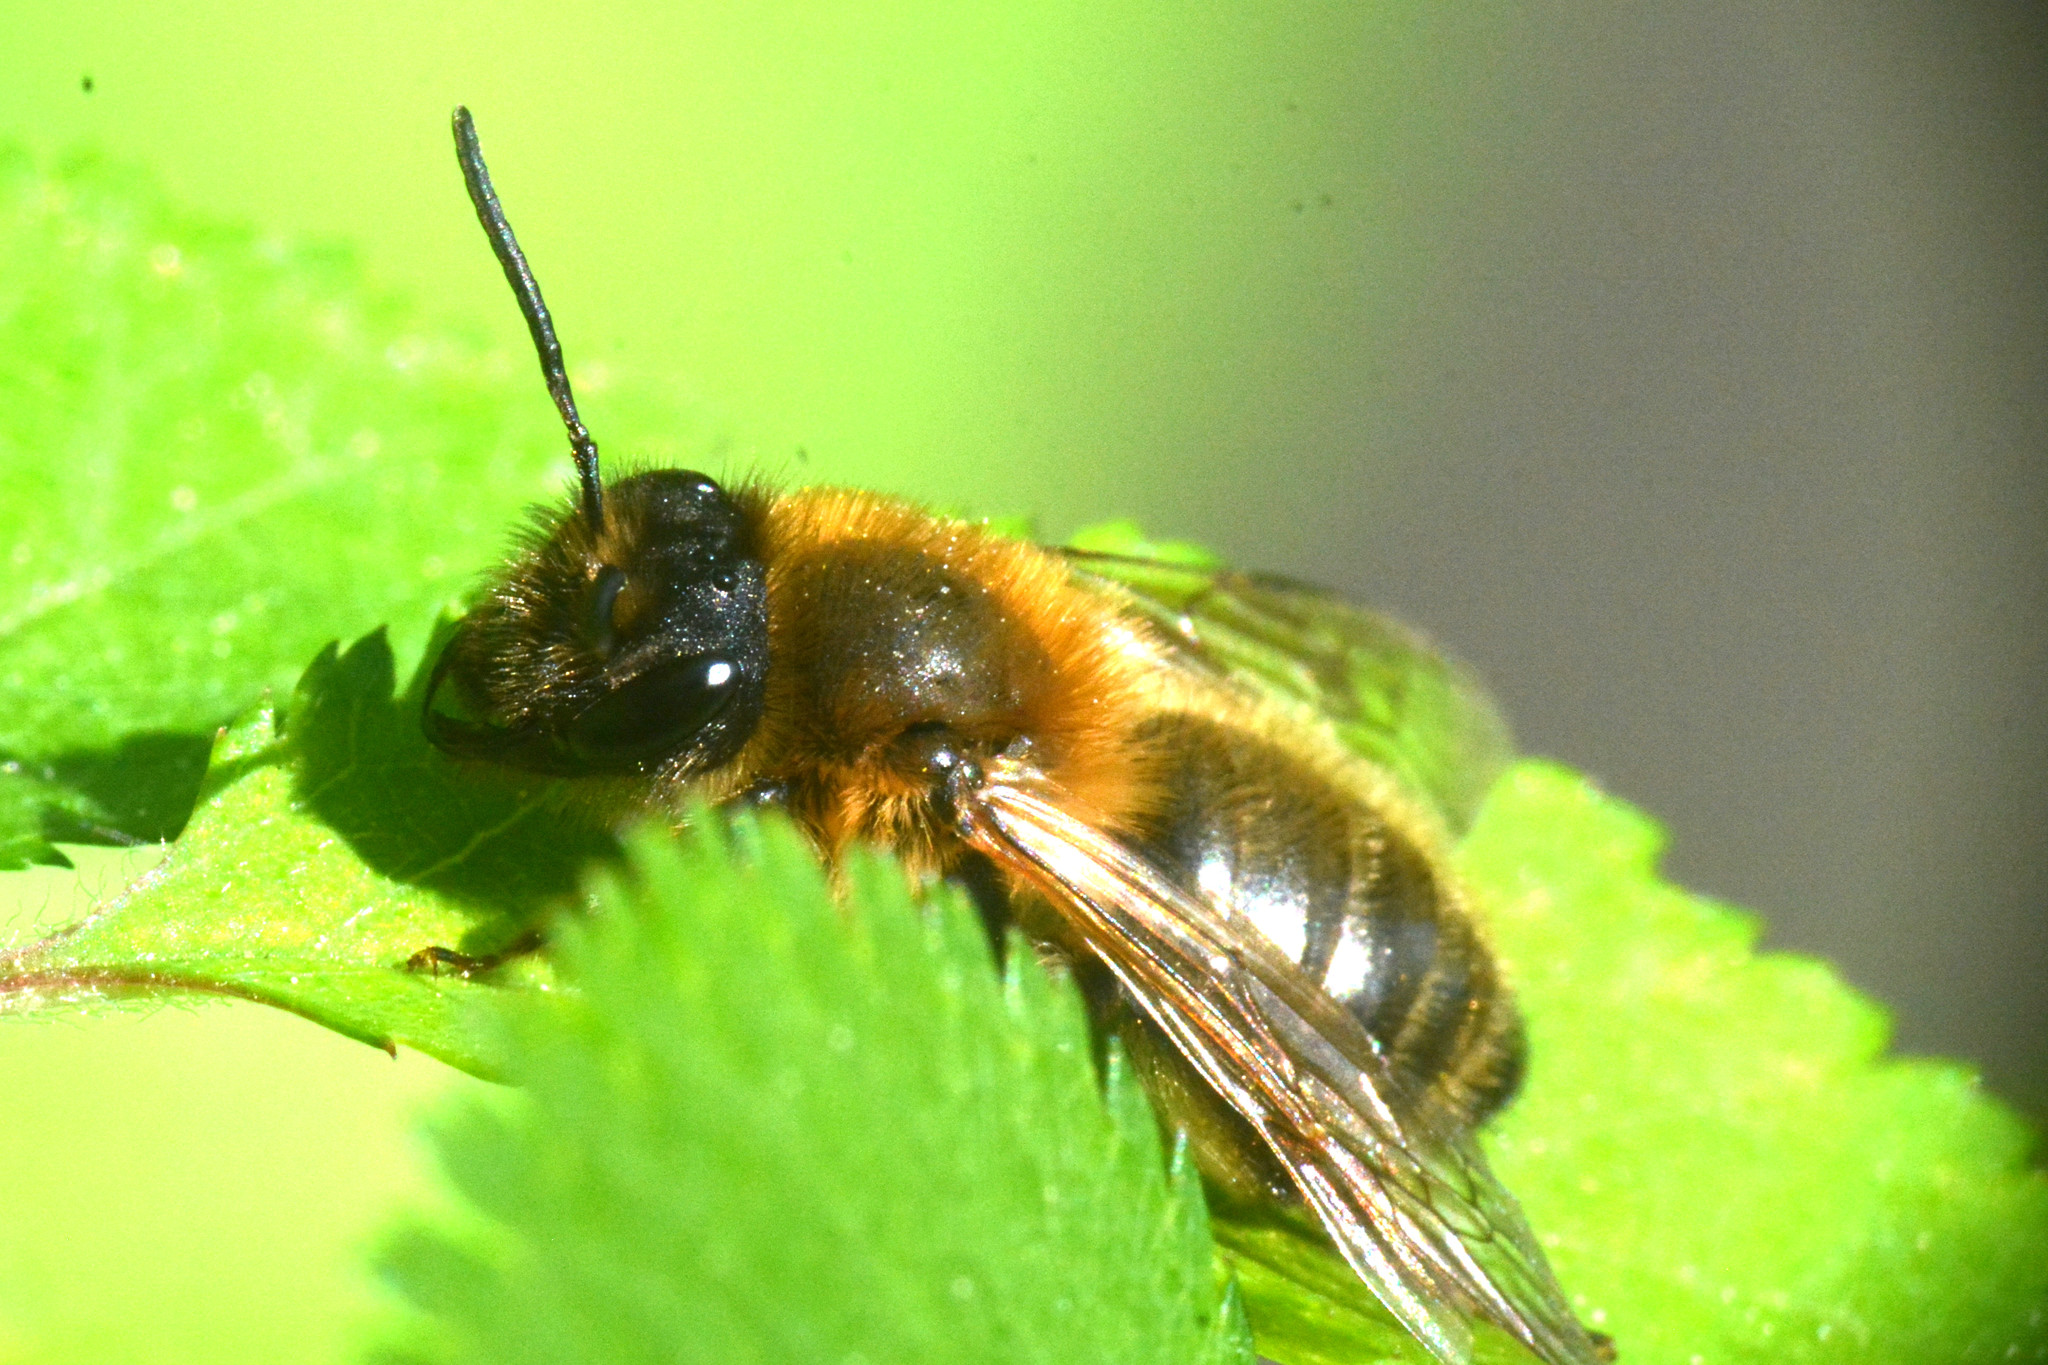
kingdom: Animalia
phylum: Arthropoda
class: Insecta
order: Hymenoptera
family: Andrenidae
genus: Andrena
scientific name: Andrena nigroaenea
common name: Buffish mining bee
